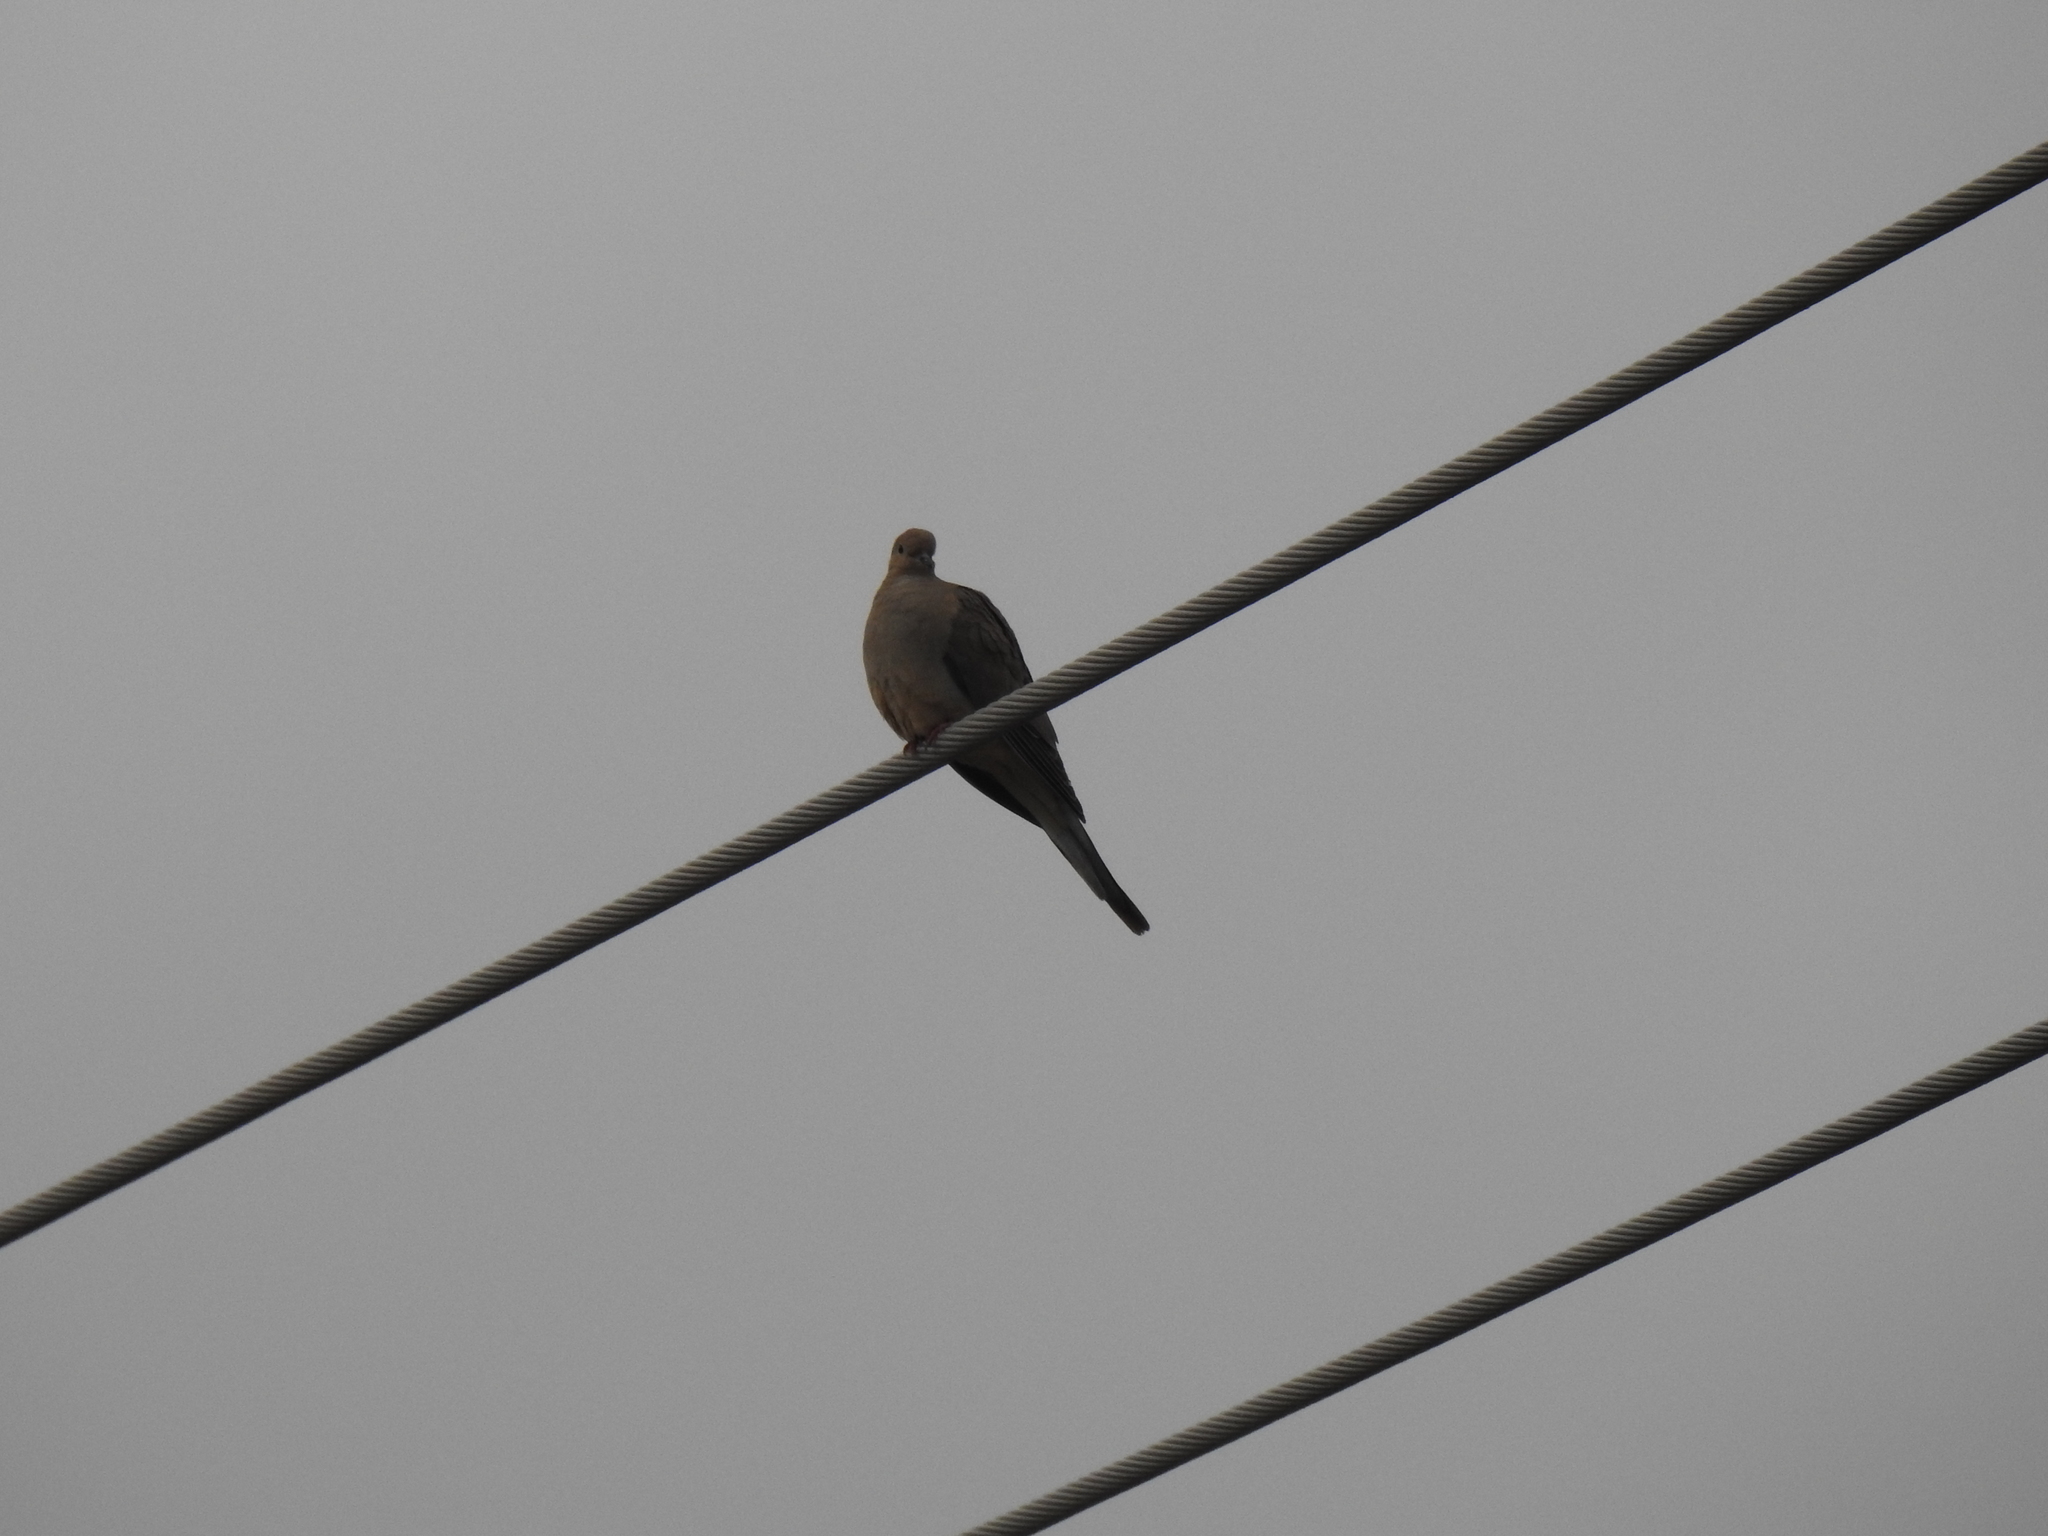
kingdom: Animalia
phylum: Chordata
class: Aves
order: Columbiformes
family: Columbidae
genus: Zenaida
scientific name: Zenaida macroura
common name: Mourning dove
